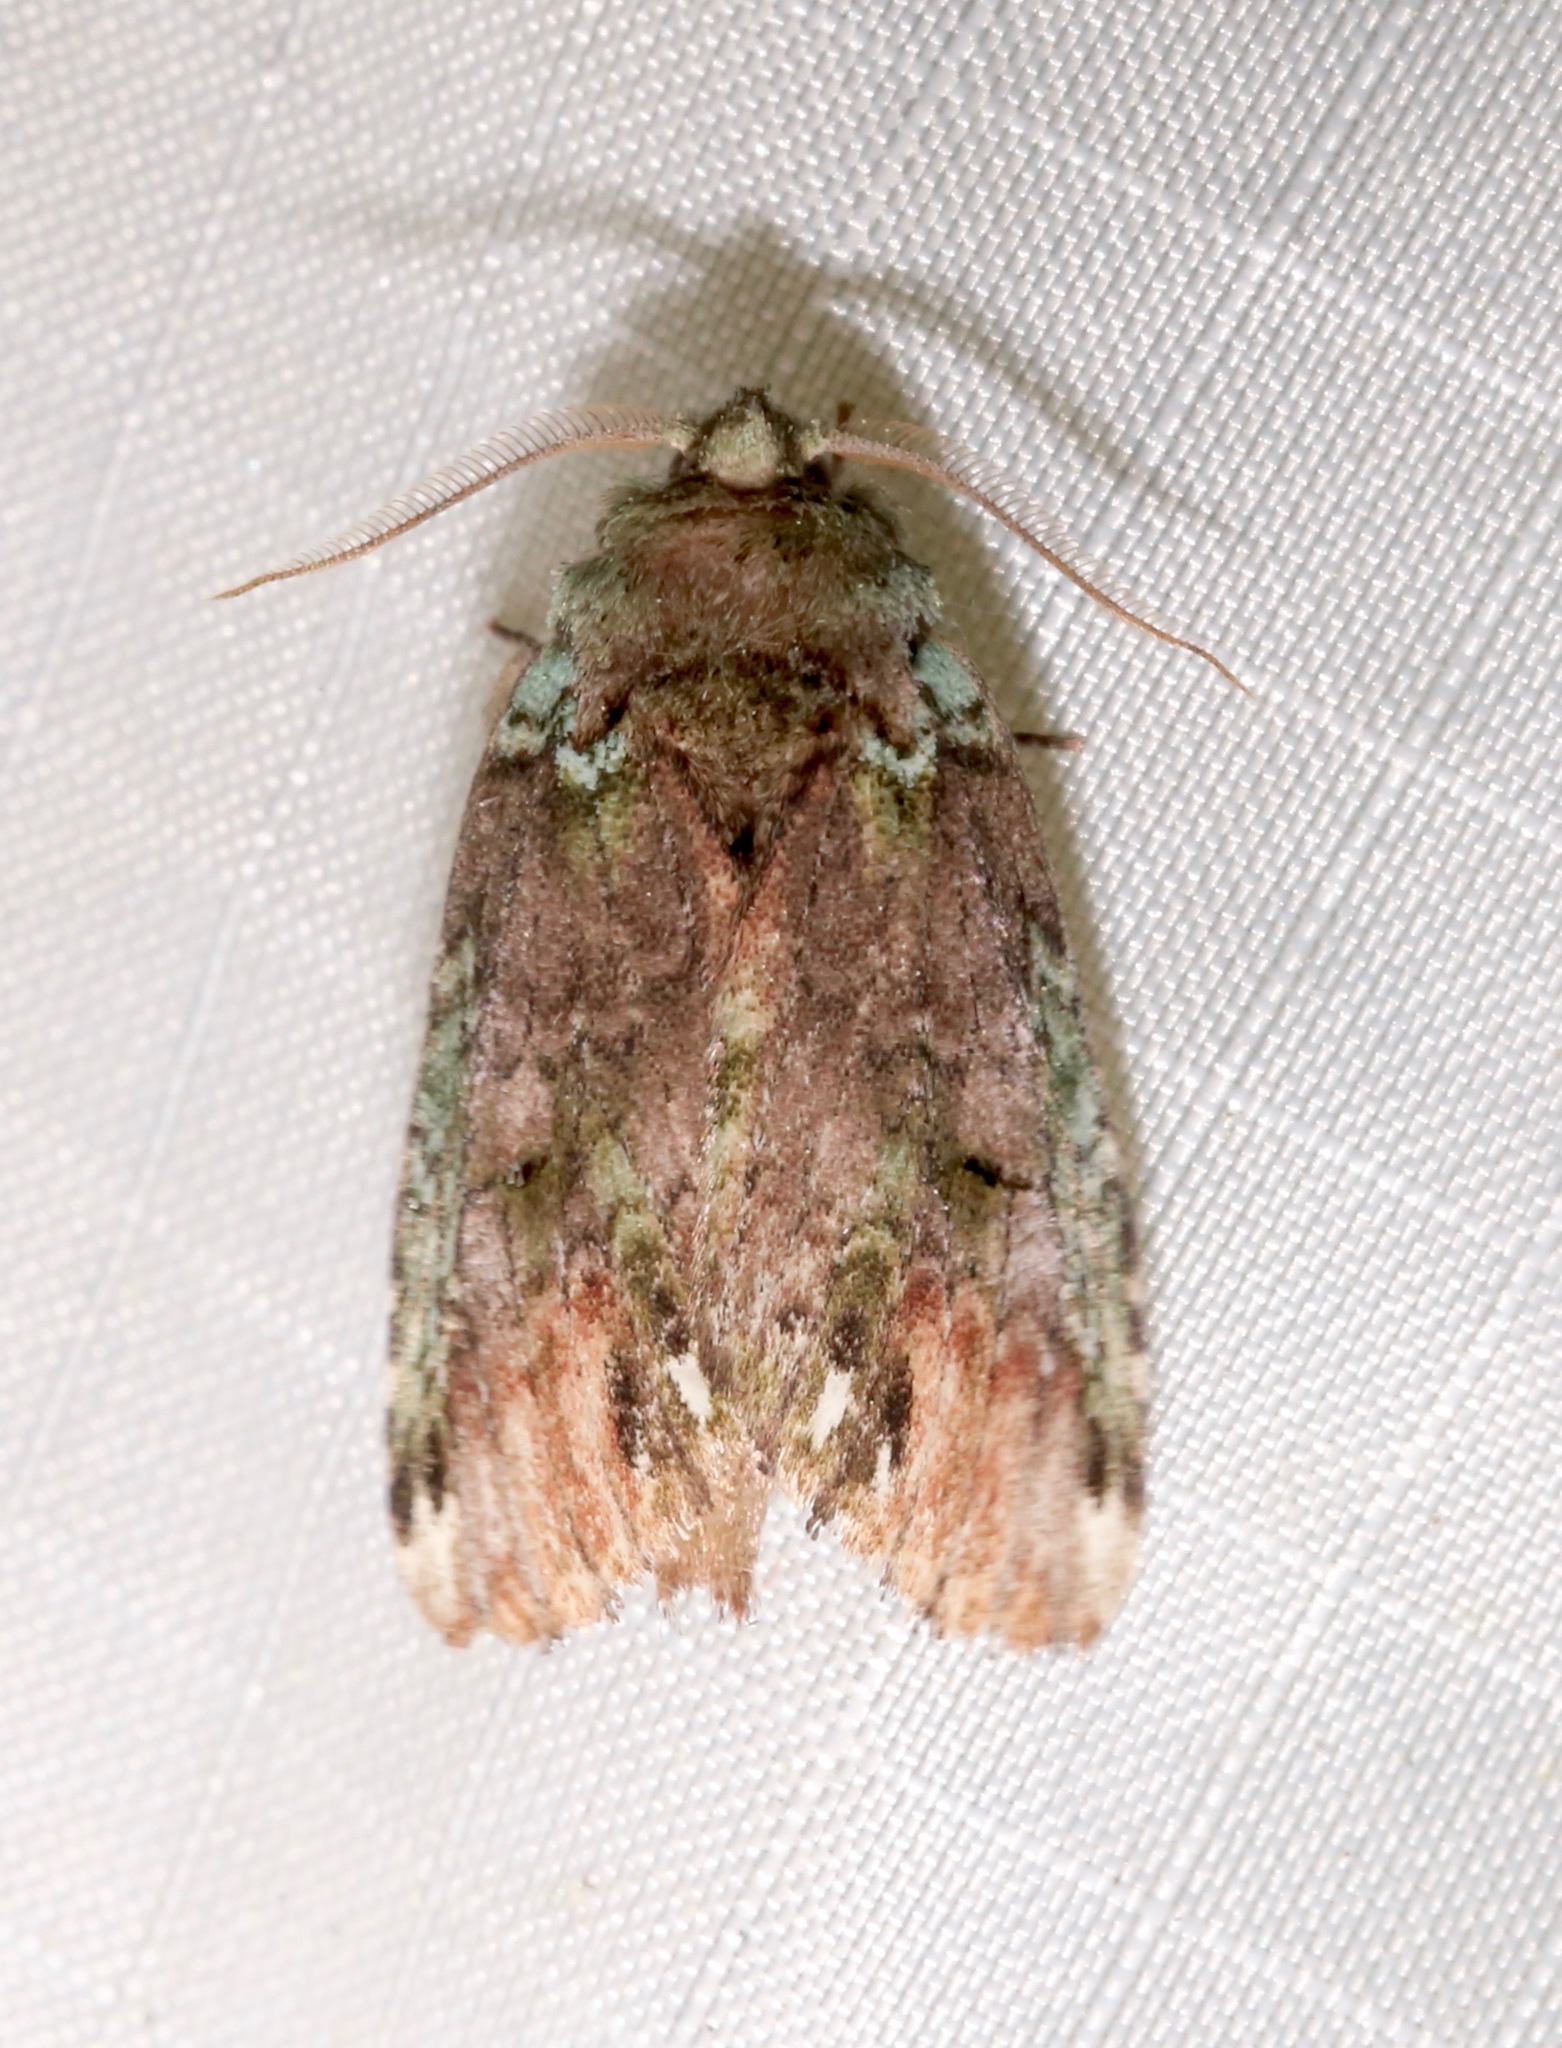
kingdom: Animalia
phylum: Arthropoda
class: Insecta
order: Lepidoptera
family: Notodontidae
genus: Schizura
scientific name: Schizura
